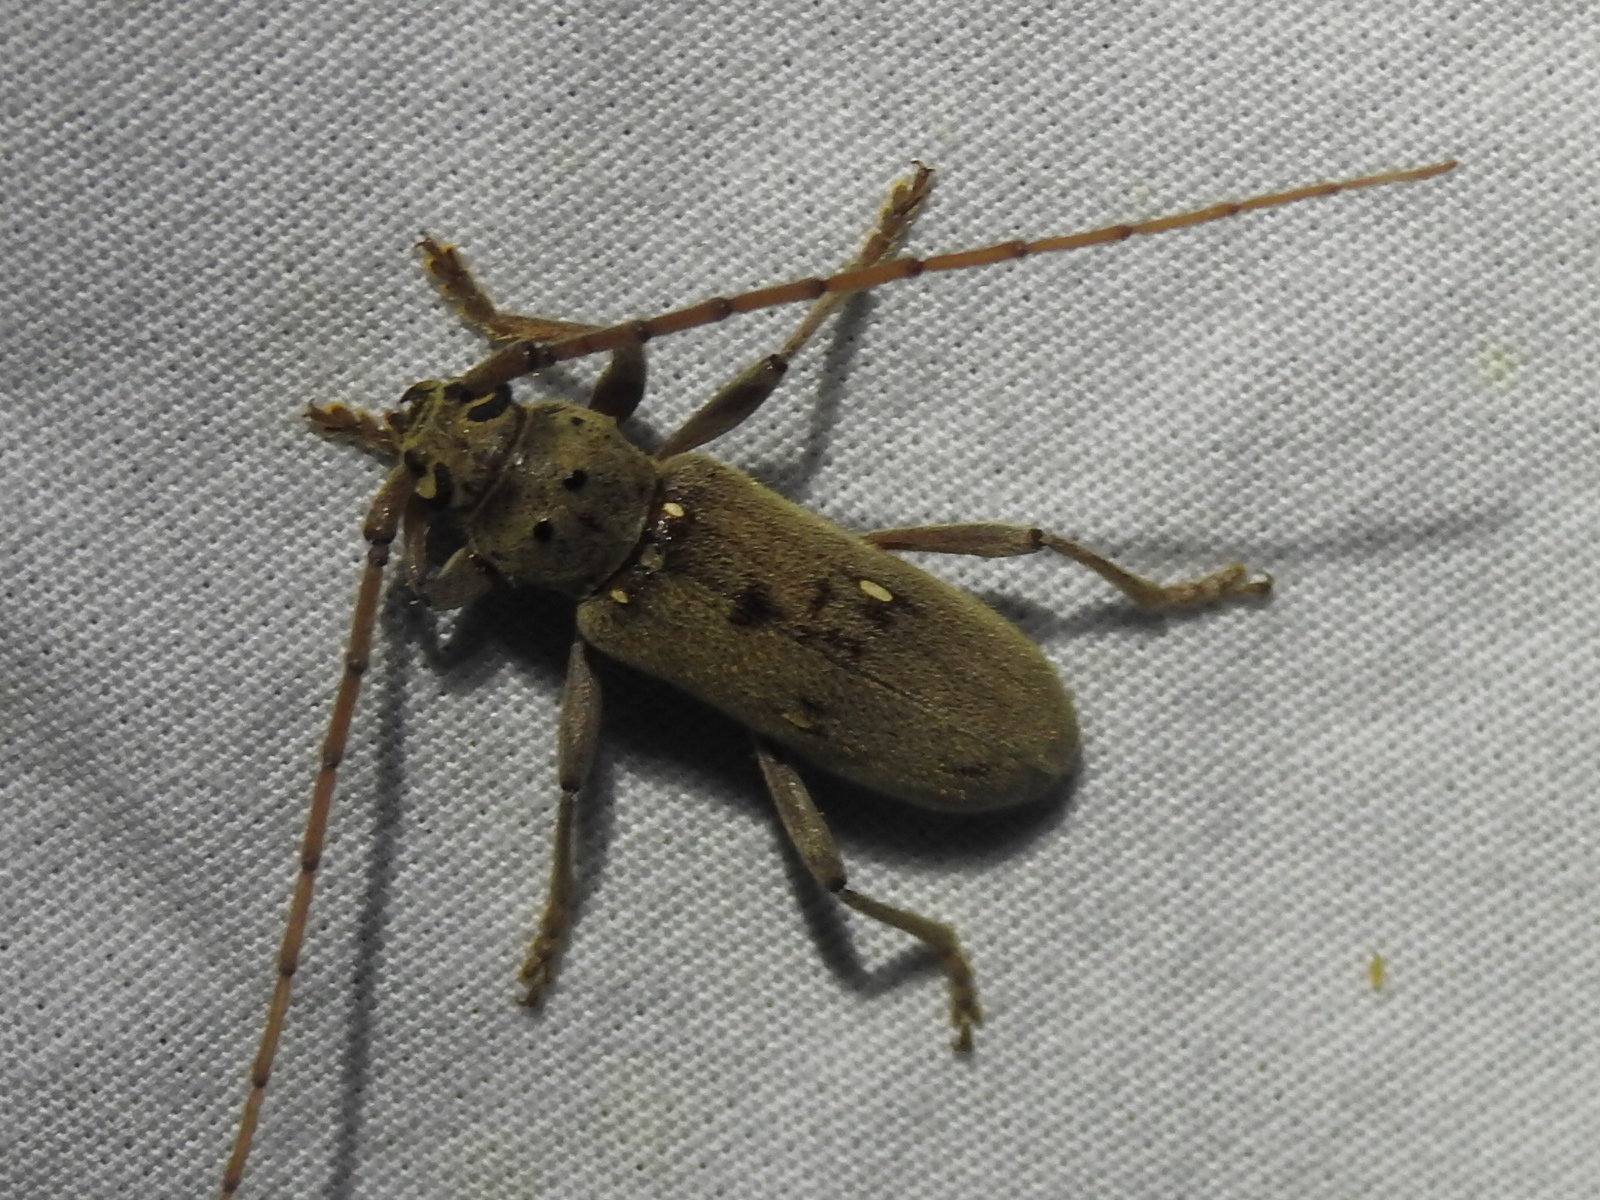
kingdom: Animalia
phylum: Arthropoda
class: Insecta
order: Coleoptera
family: Cerambycidae
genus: Eburia
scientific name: Eburia mutica
